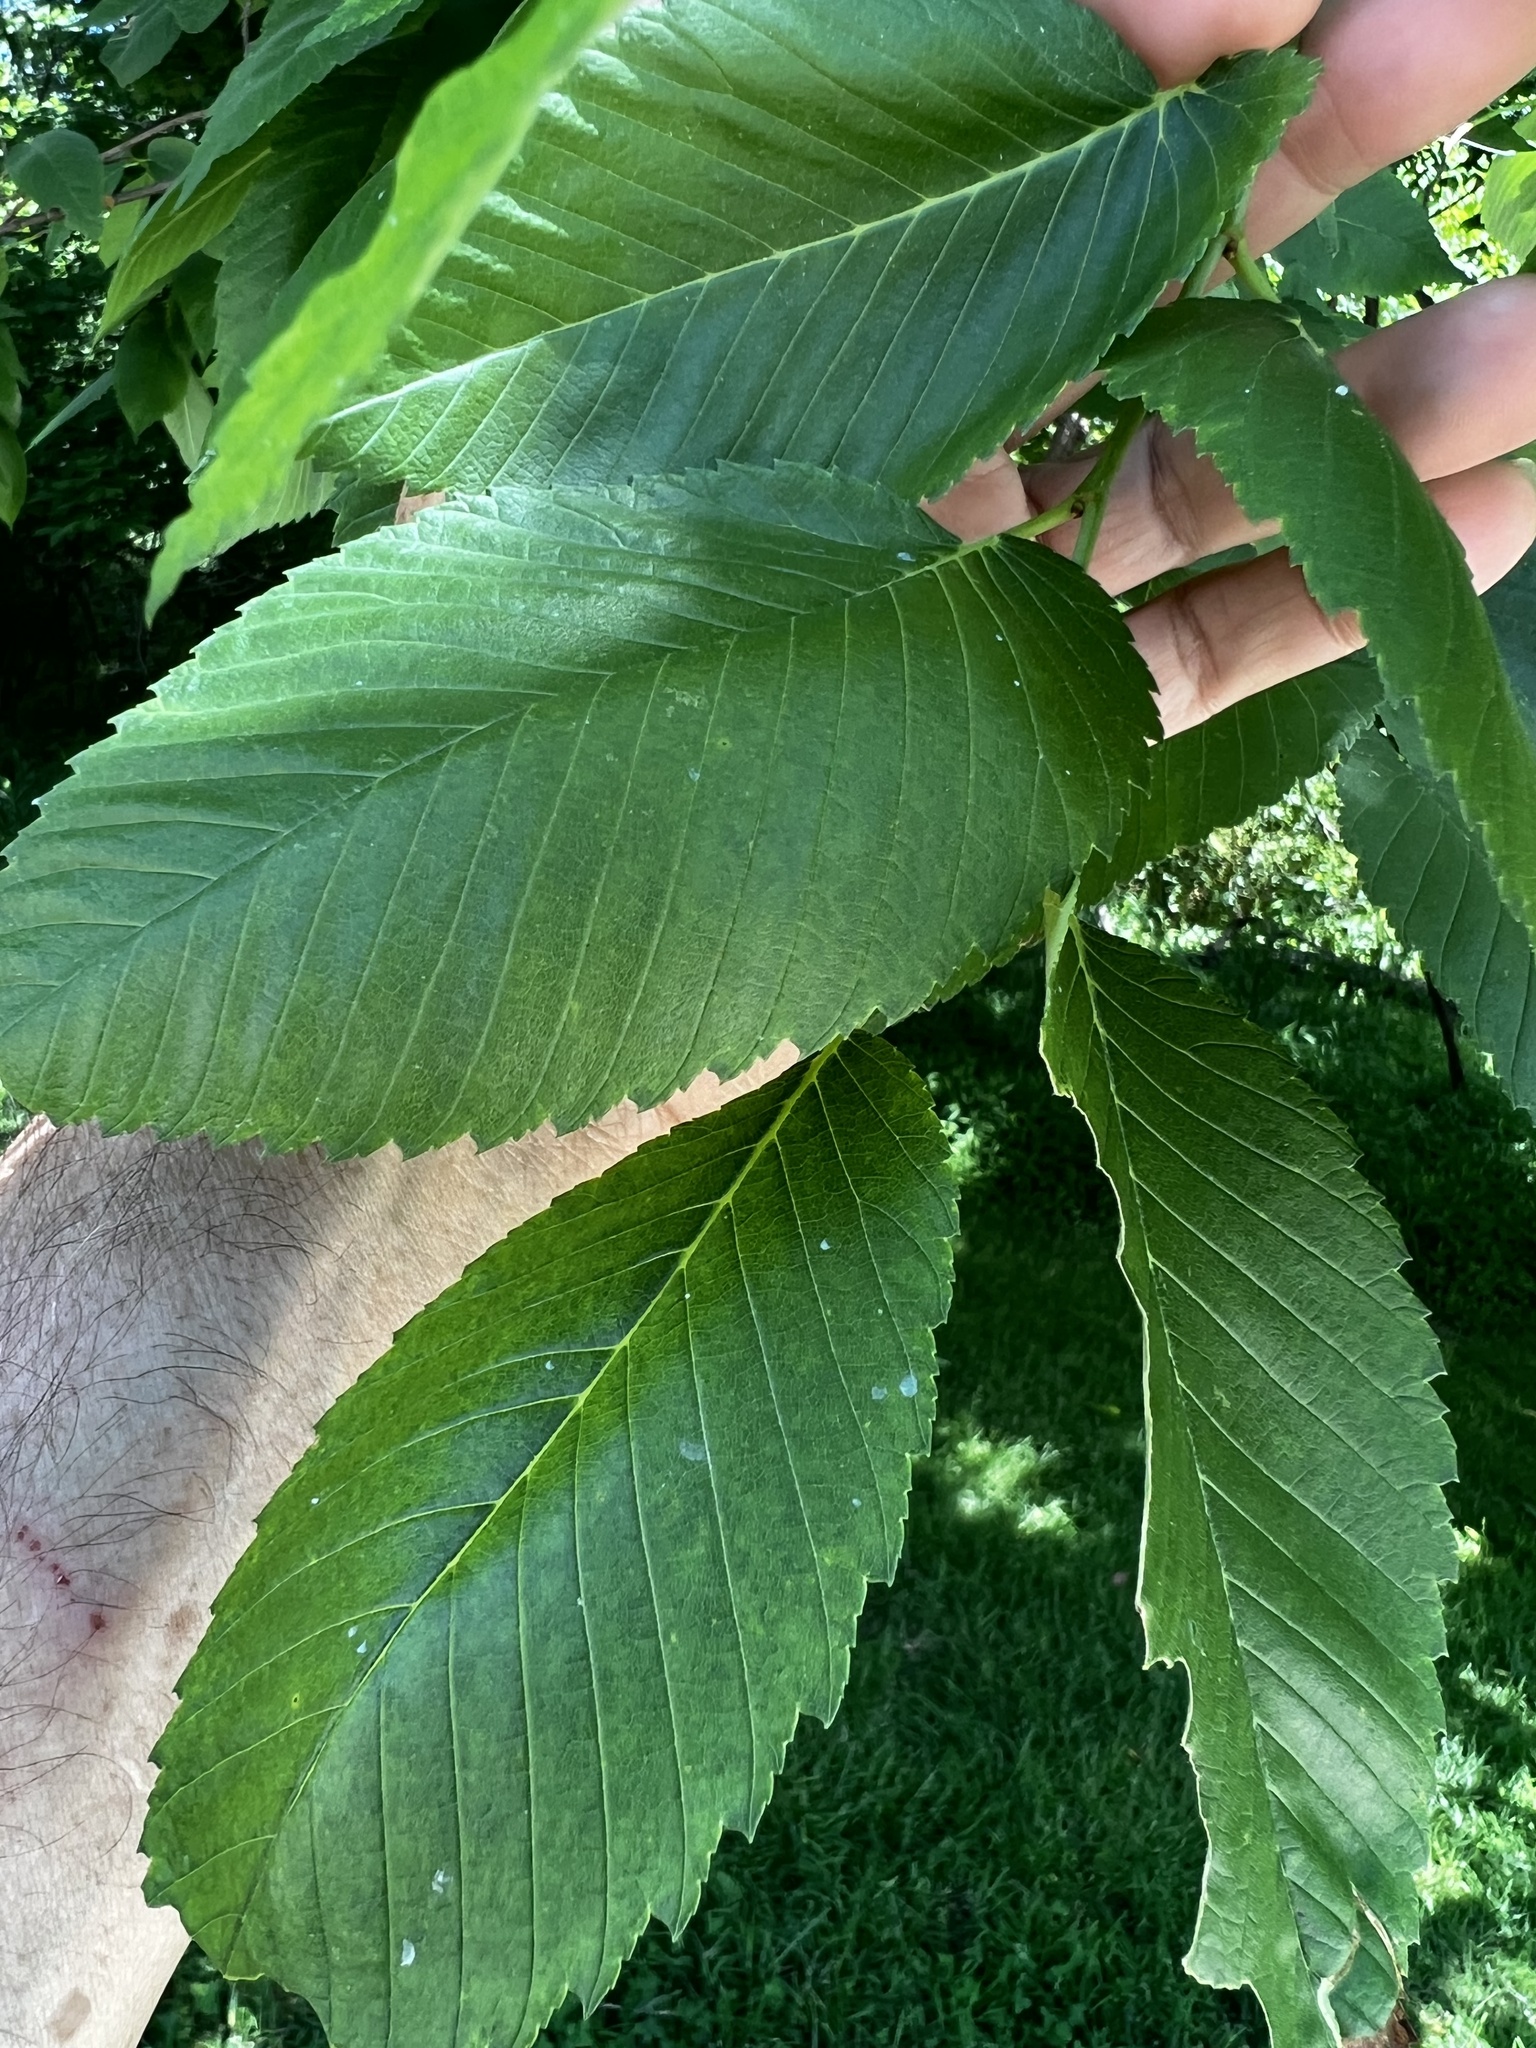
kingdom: Animalia
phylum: Arthropoda
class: Insecta
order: Diptera
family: Agromyzidae
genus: Agromyza
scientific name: Agromyza aristata
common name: Elm agromyzid leafminer
